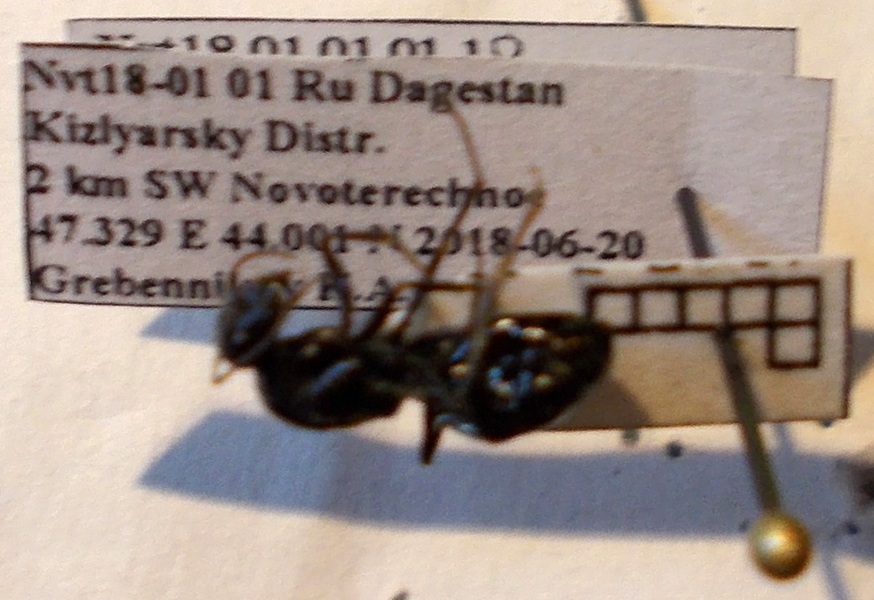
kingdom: Animalia
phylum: Arthropoda
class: Insecta
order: Hymenoptera
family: Formicidae
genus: Cataglyphis
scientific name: Cataglyphis aenescens
